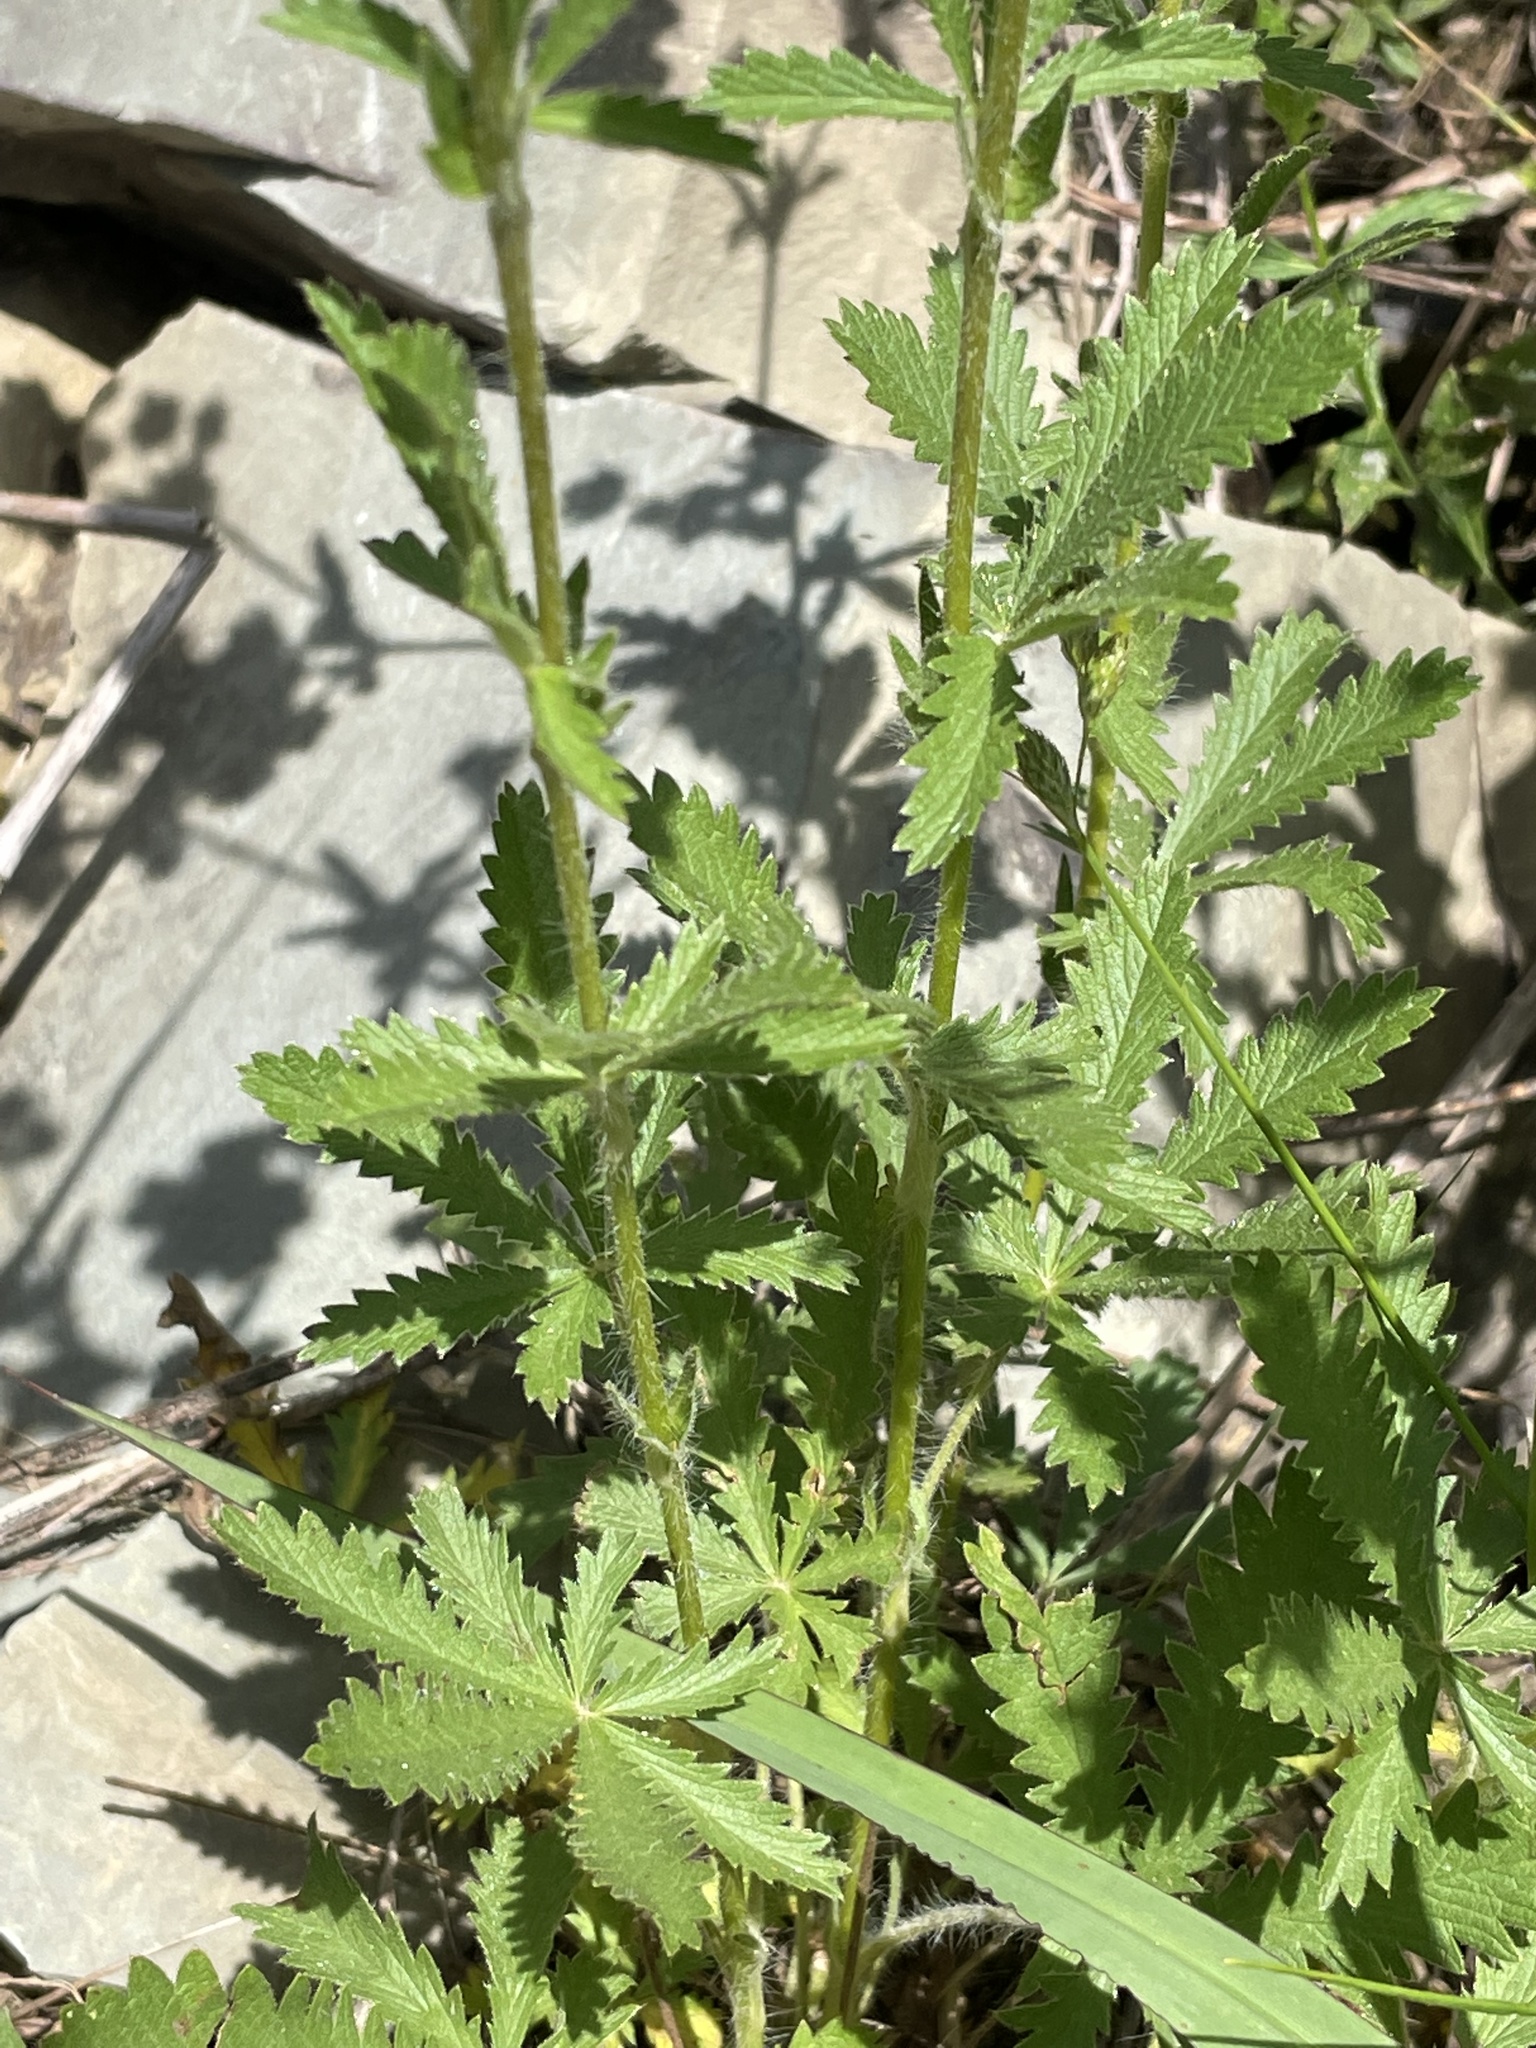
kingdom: Plantae
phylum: Tracheophyta
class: Magnoliopsida
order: Rosales
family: Rosaceae
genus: Potentilla
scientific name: Potentilla recta
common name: Sulphur cinquefoil
